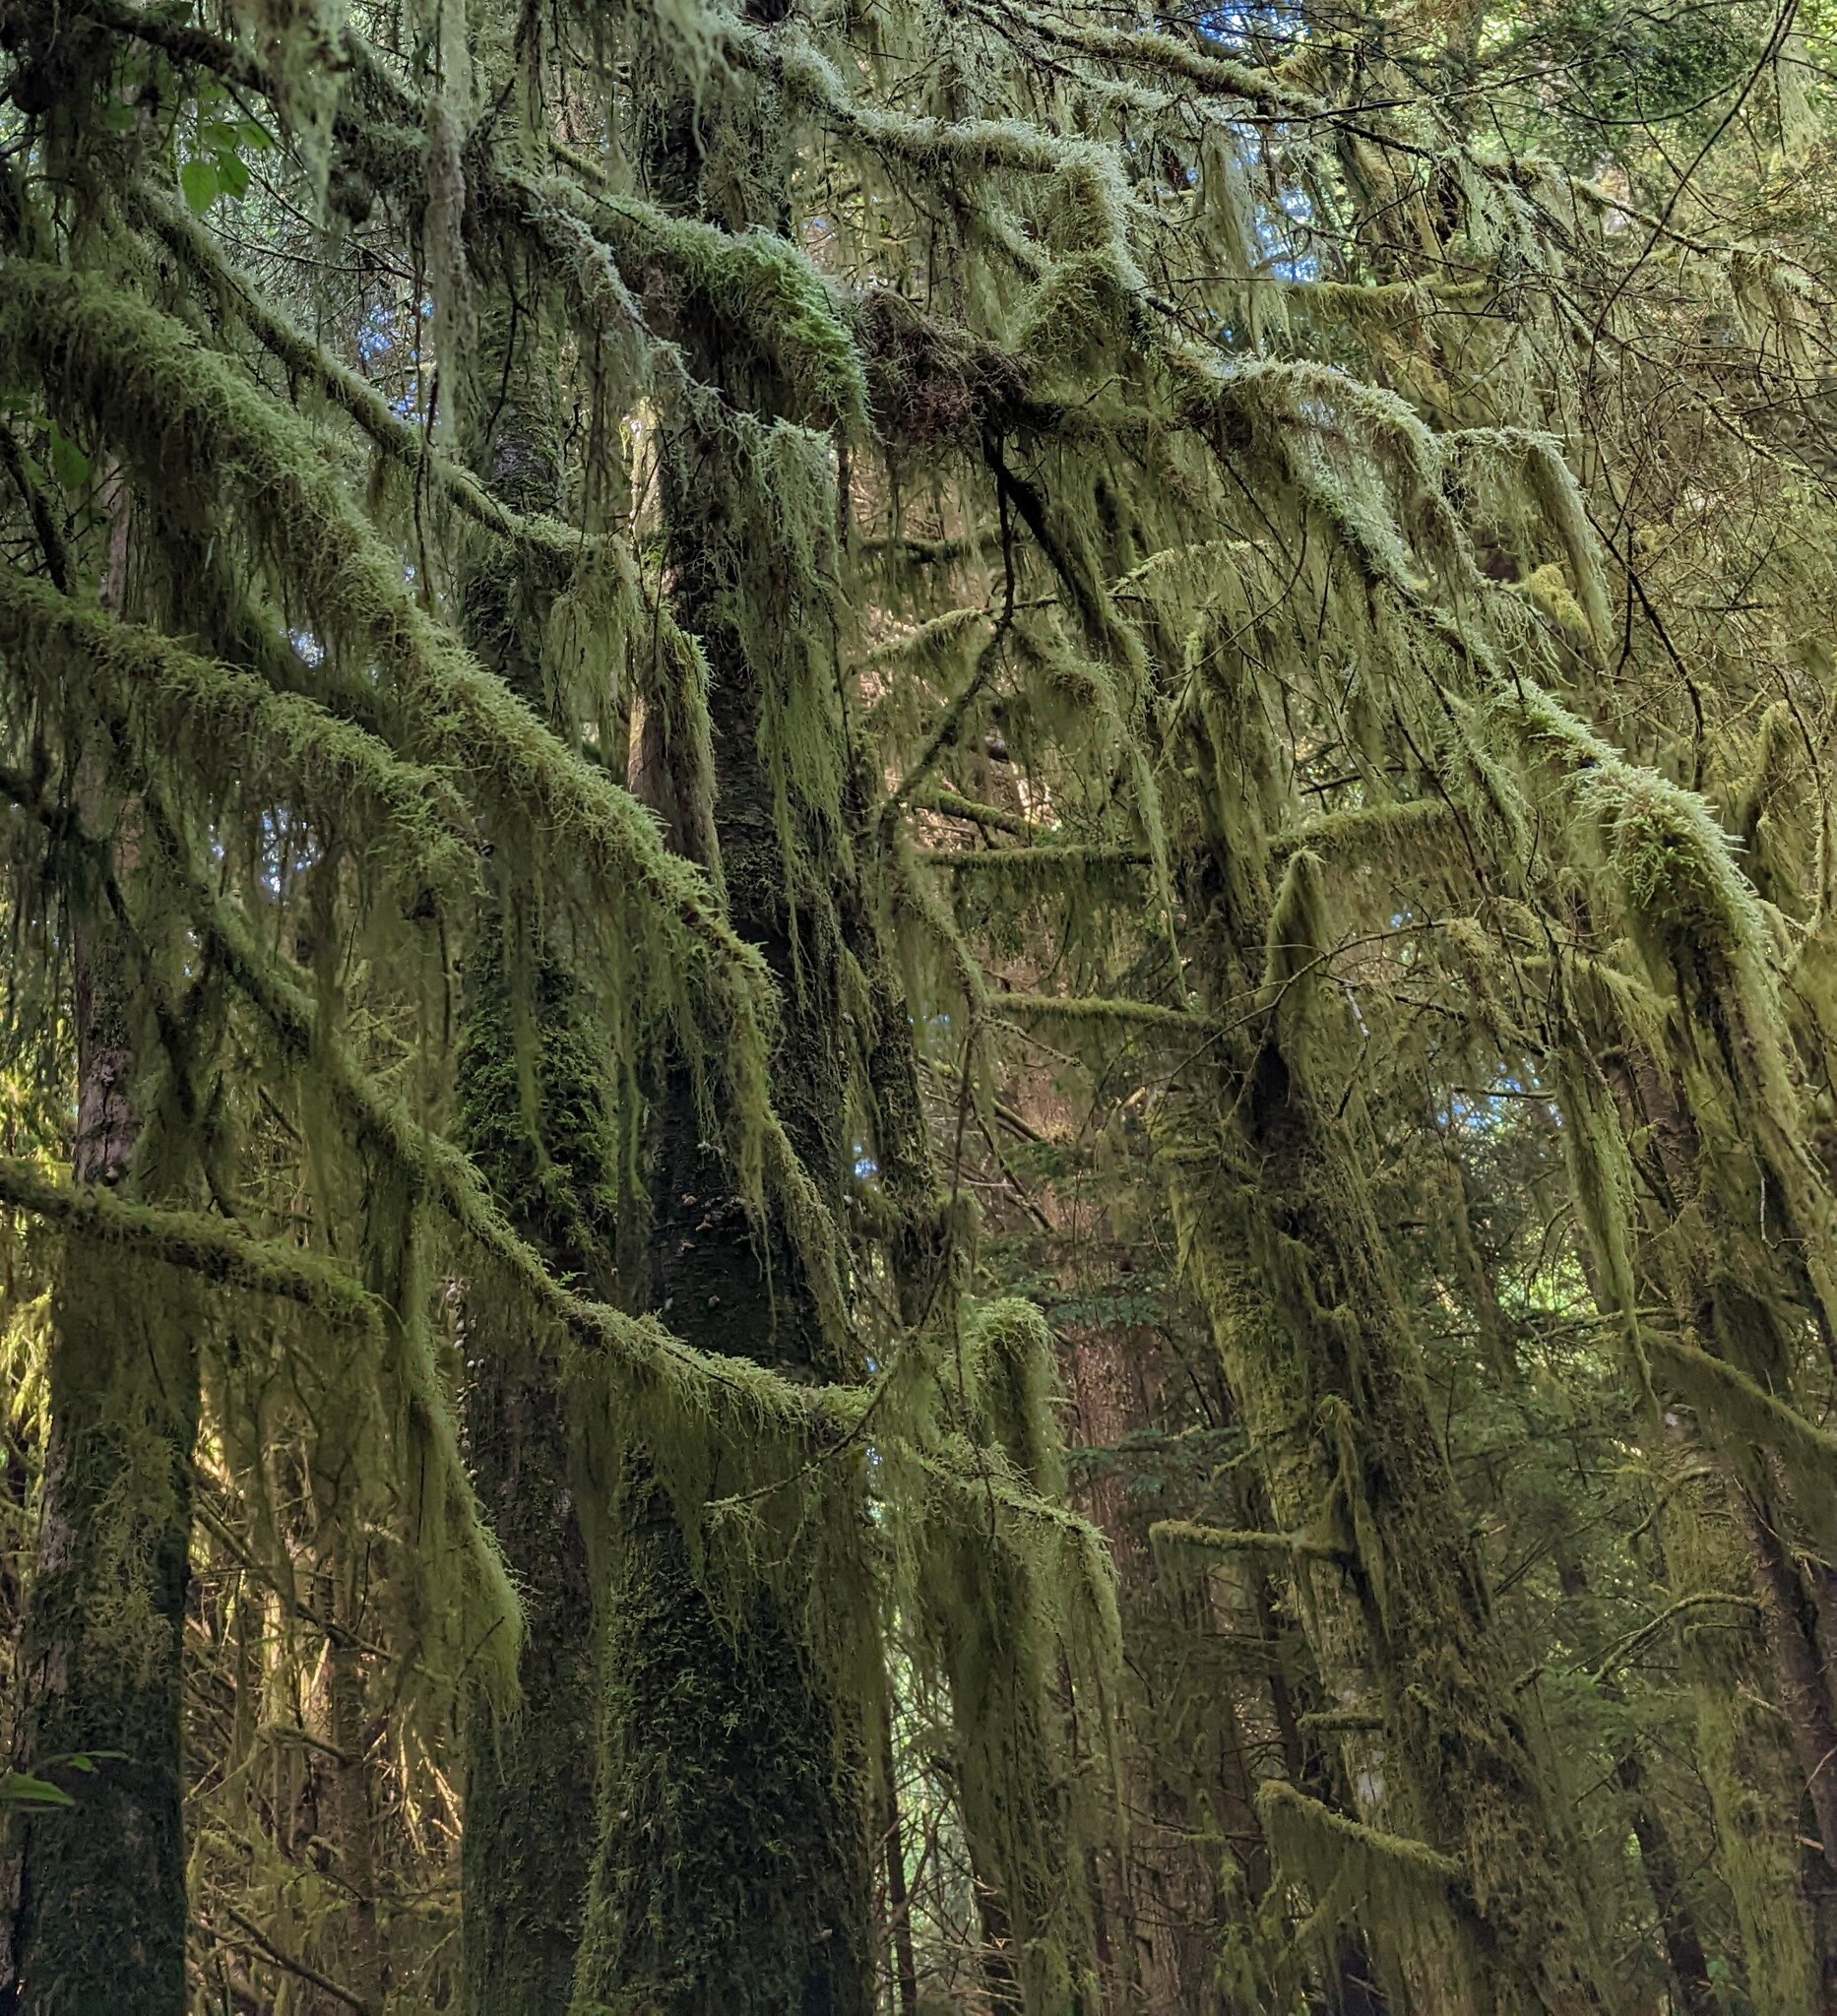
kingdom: Plantae
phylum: Bryophyta
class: Bryopsida
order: Hypnales
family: Lembophyllaceae
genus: Pseudisothecium
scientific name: Pseudisothecium stoloniferum
